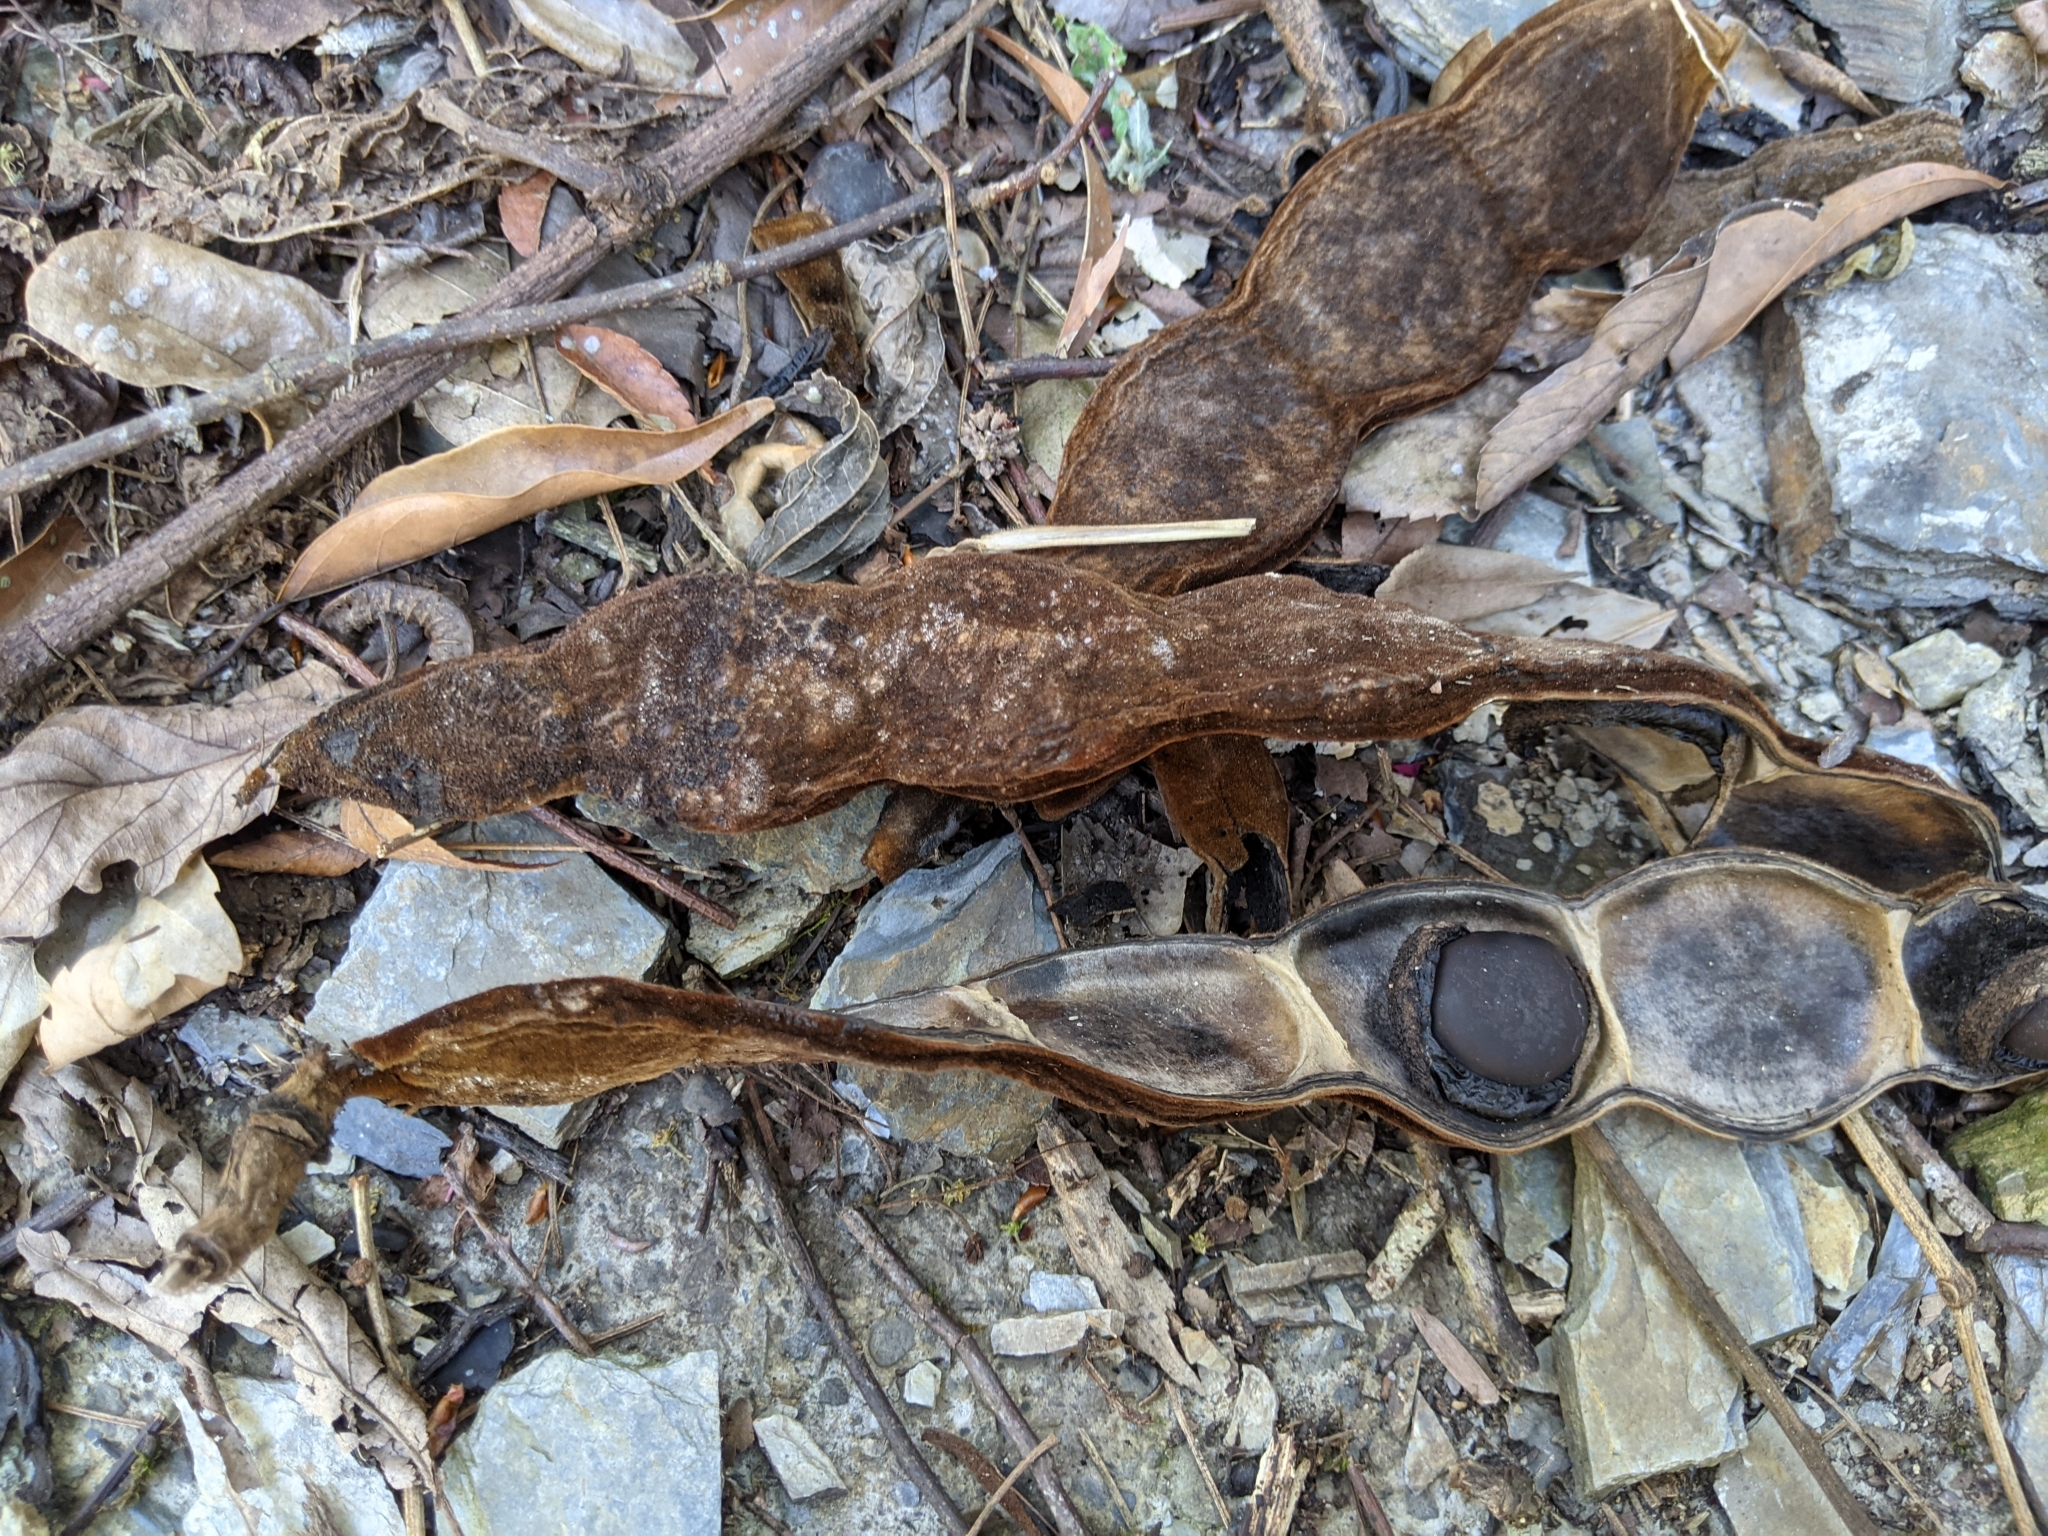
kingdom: Plantae
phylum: Tracheophyta
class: Magnoliopsida
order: Fabales
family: Fabaceae
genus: Mucuna
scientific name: Mucuna macrocarpa
